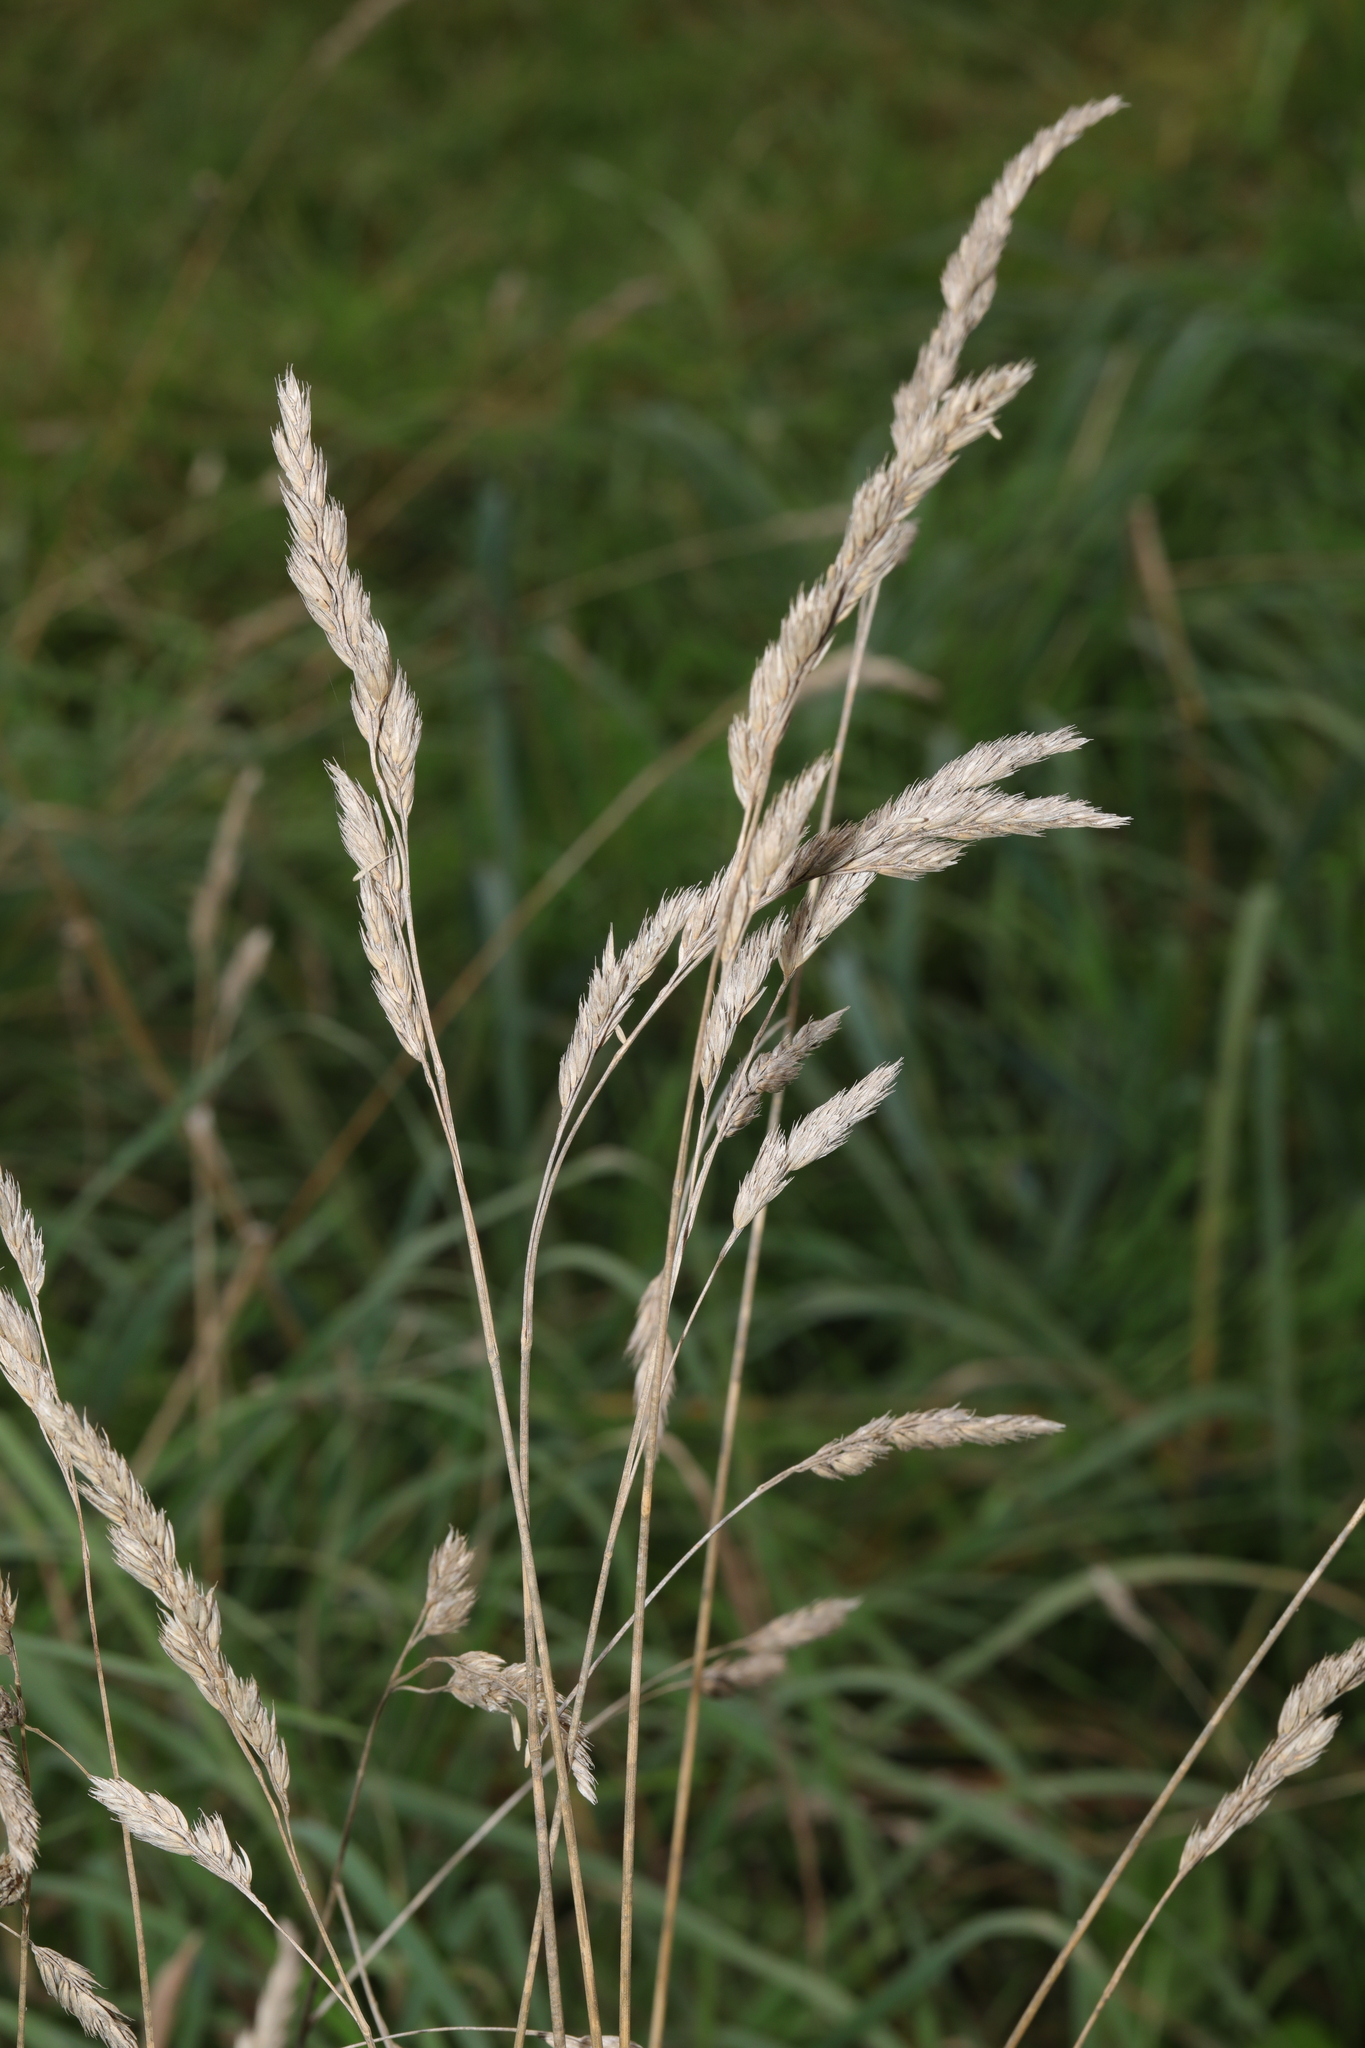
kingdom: Plantae
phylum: Tracheophyta
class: Liliopsida
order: Poales
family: Poaceae
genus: Dactylis
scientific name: Dactylis glomerata
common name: Orchardgrass
